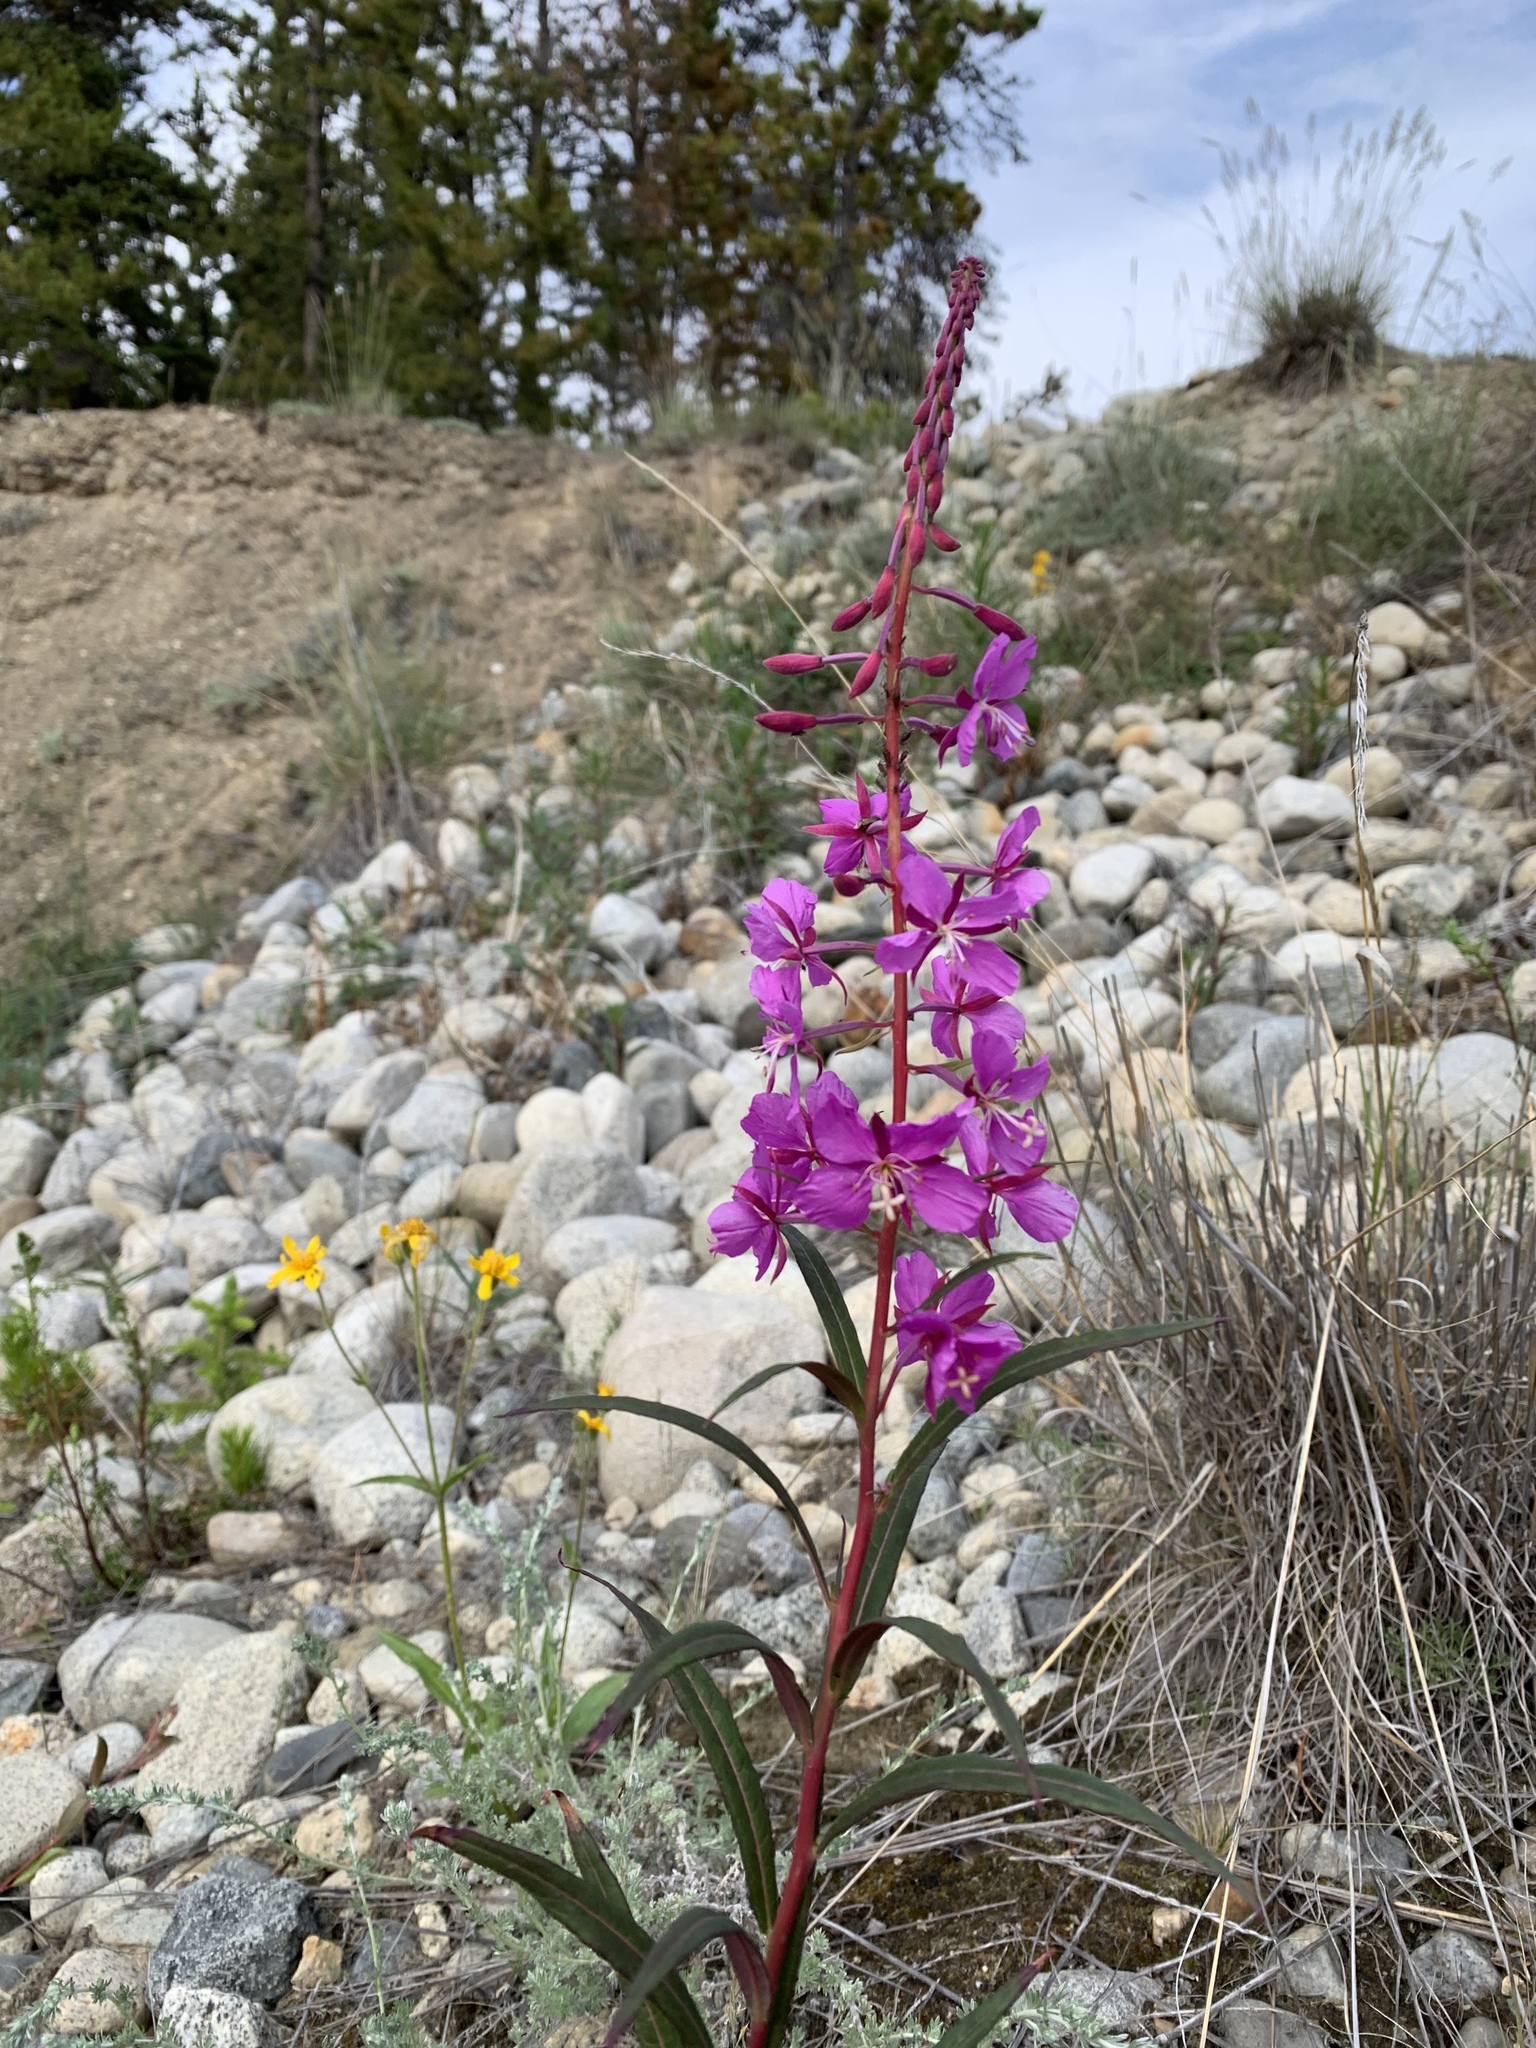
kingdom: Plantae
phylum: Tracheophyta
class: Magnoliopsida
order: Myrtales
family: Onagraceae
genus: Chamaenerion
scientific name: Chamaenerion angustifolium
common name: Fireweed
